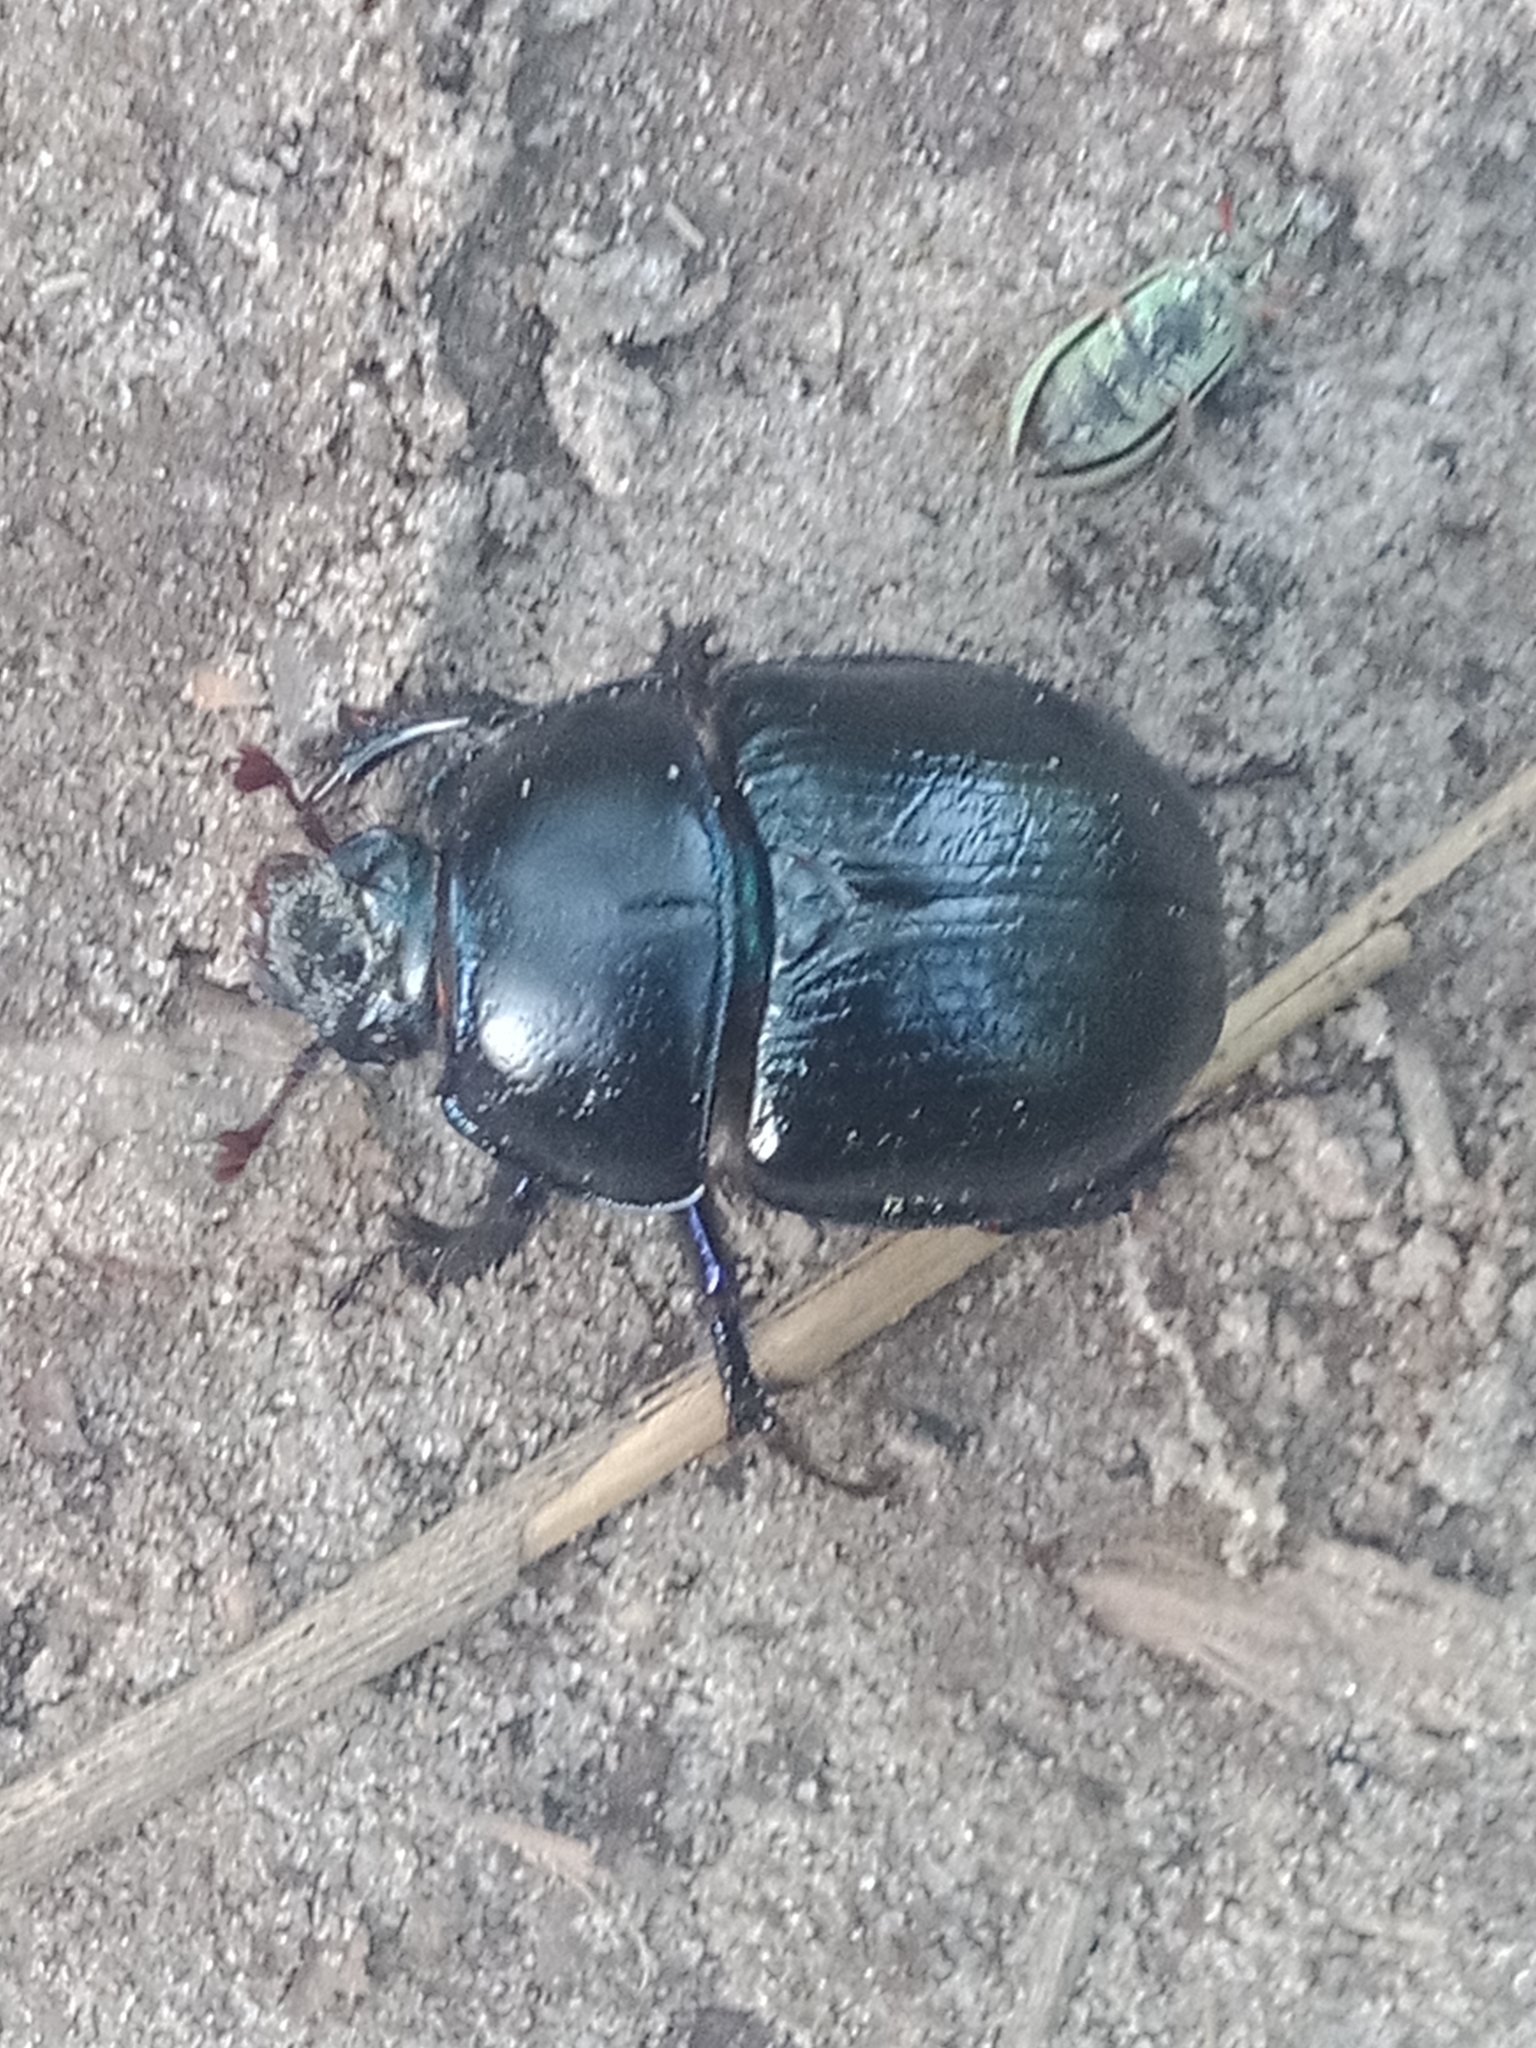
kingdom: Animalia
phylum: Arthropoda
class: Insecta
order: Coleoptera
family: Geotrupidae
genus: Anoplotrupes
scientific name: Anoplotrupes stercorosus
